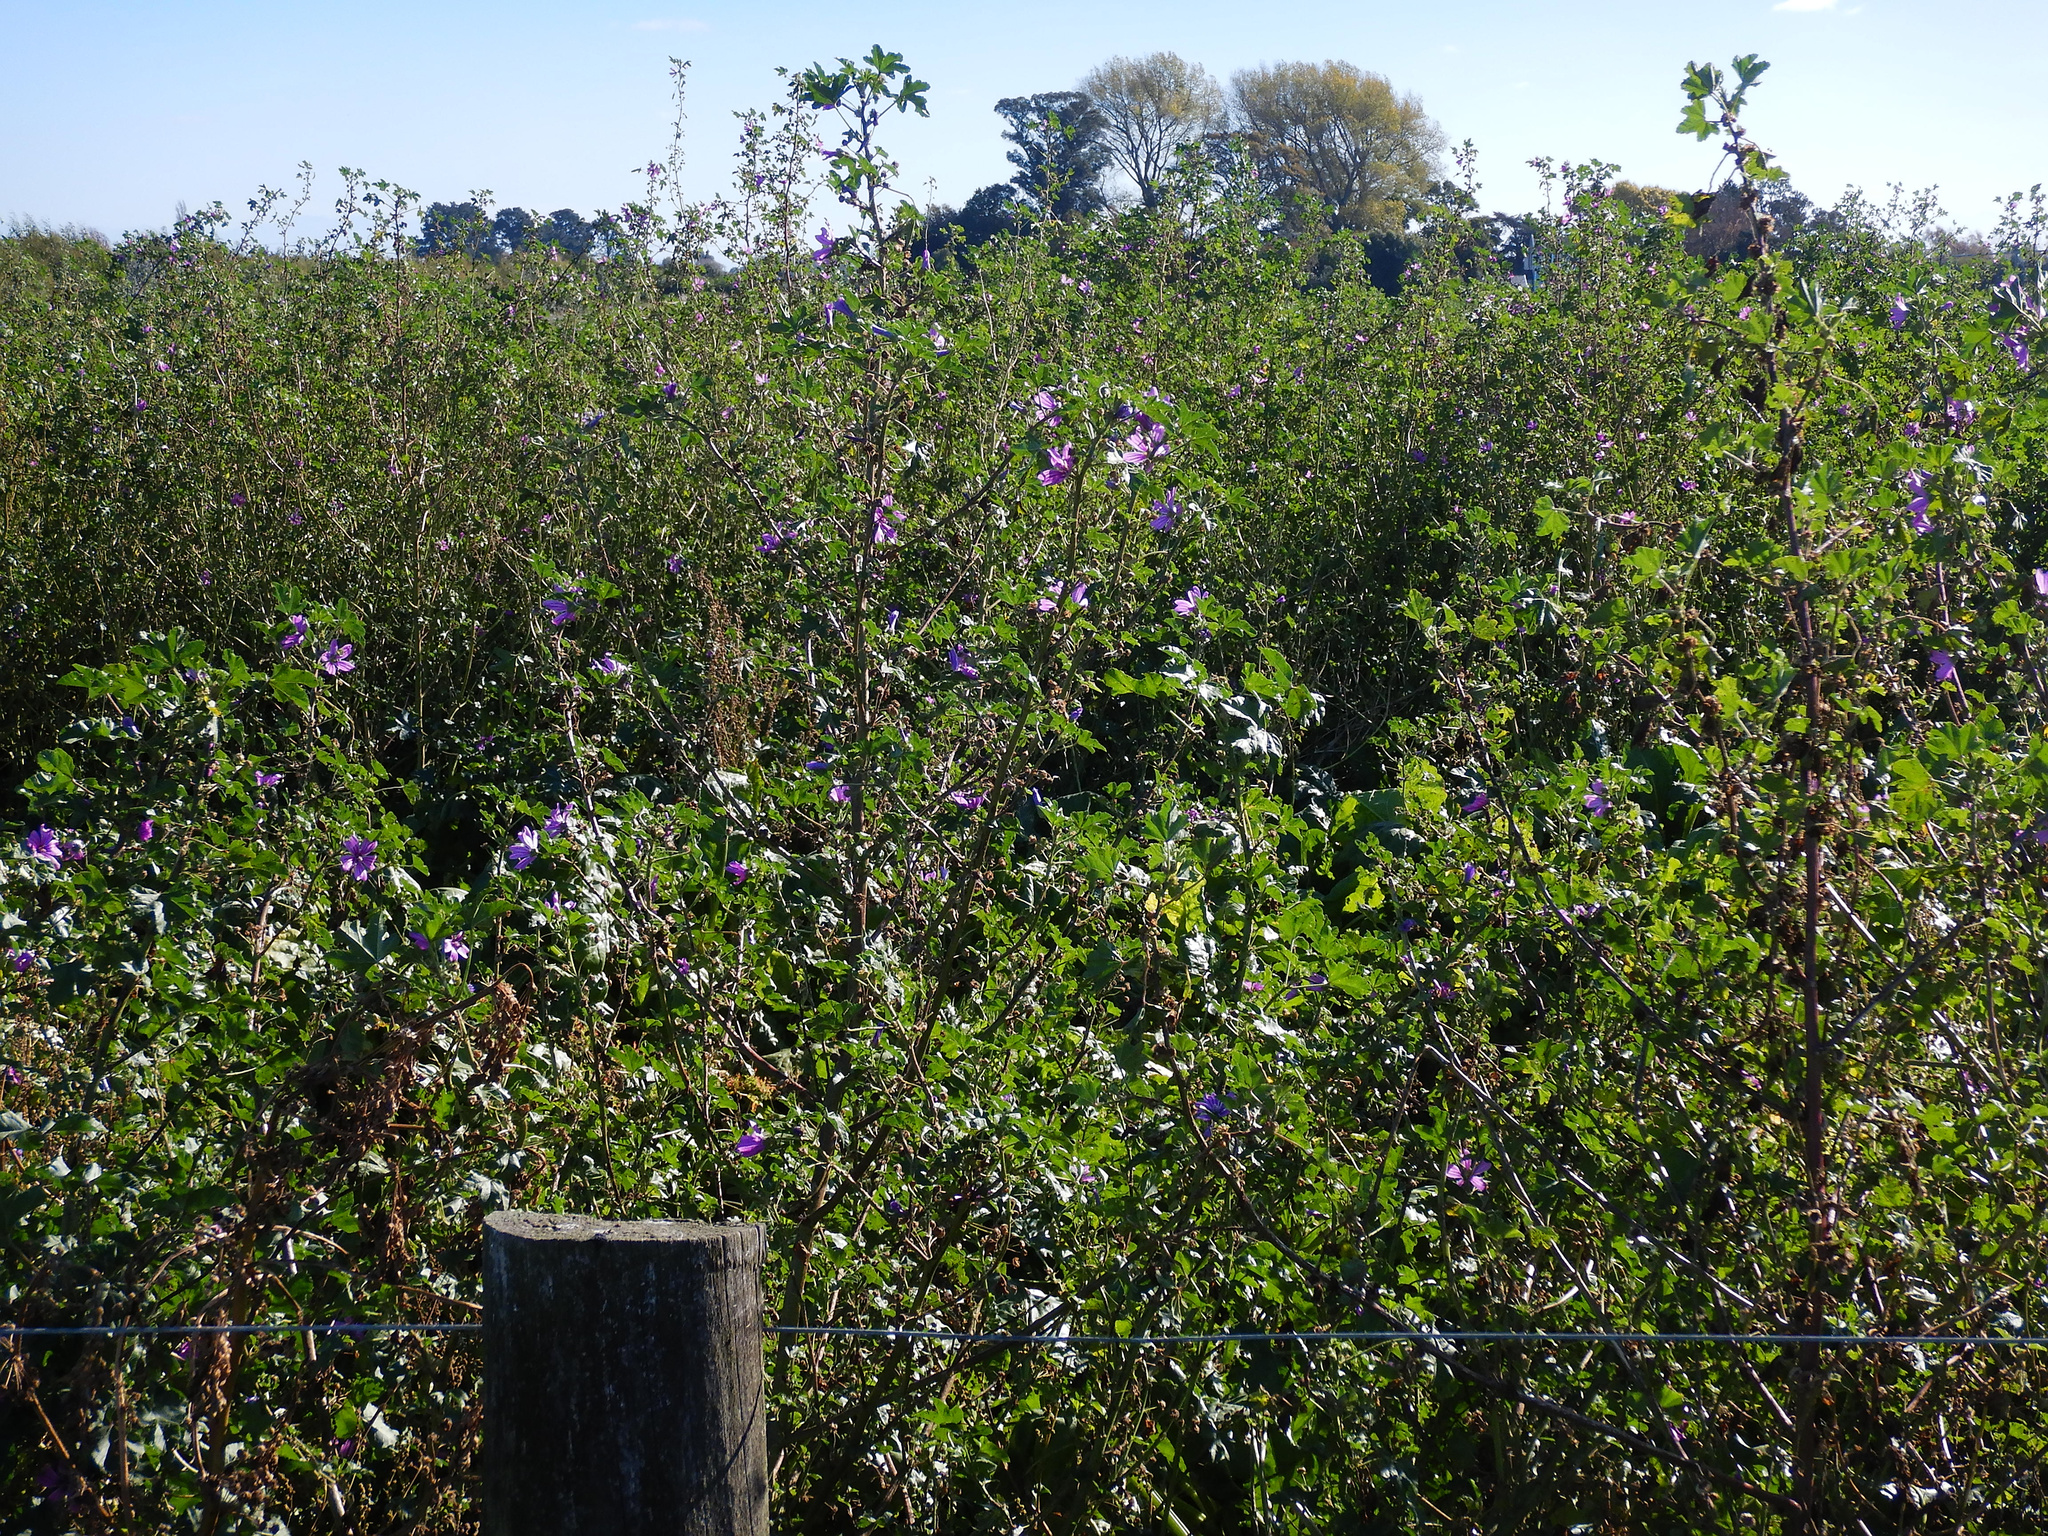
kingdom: Plantae
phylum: Tracheophyta
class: Magnoliopsida
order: Malvales
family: Malvaceae
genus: Malva
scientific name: Malva sylvestris
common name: Common mallow
